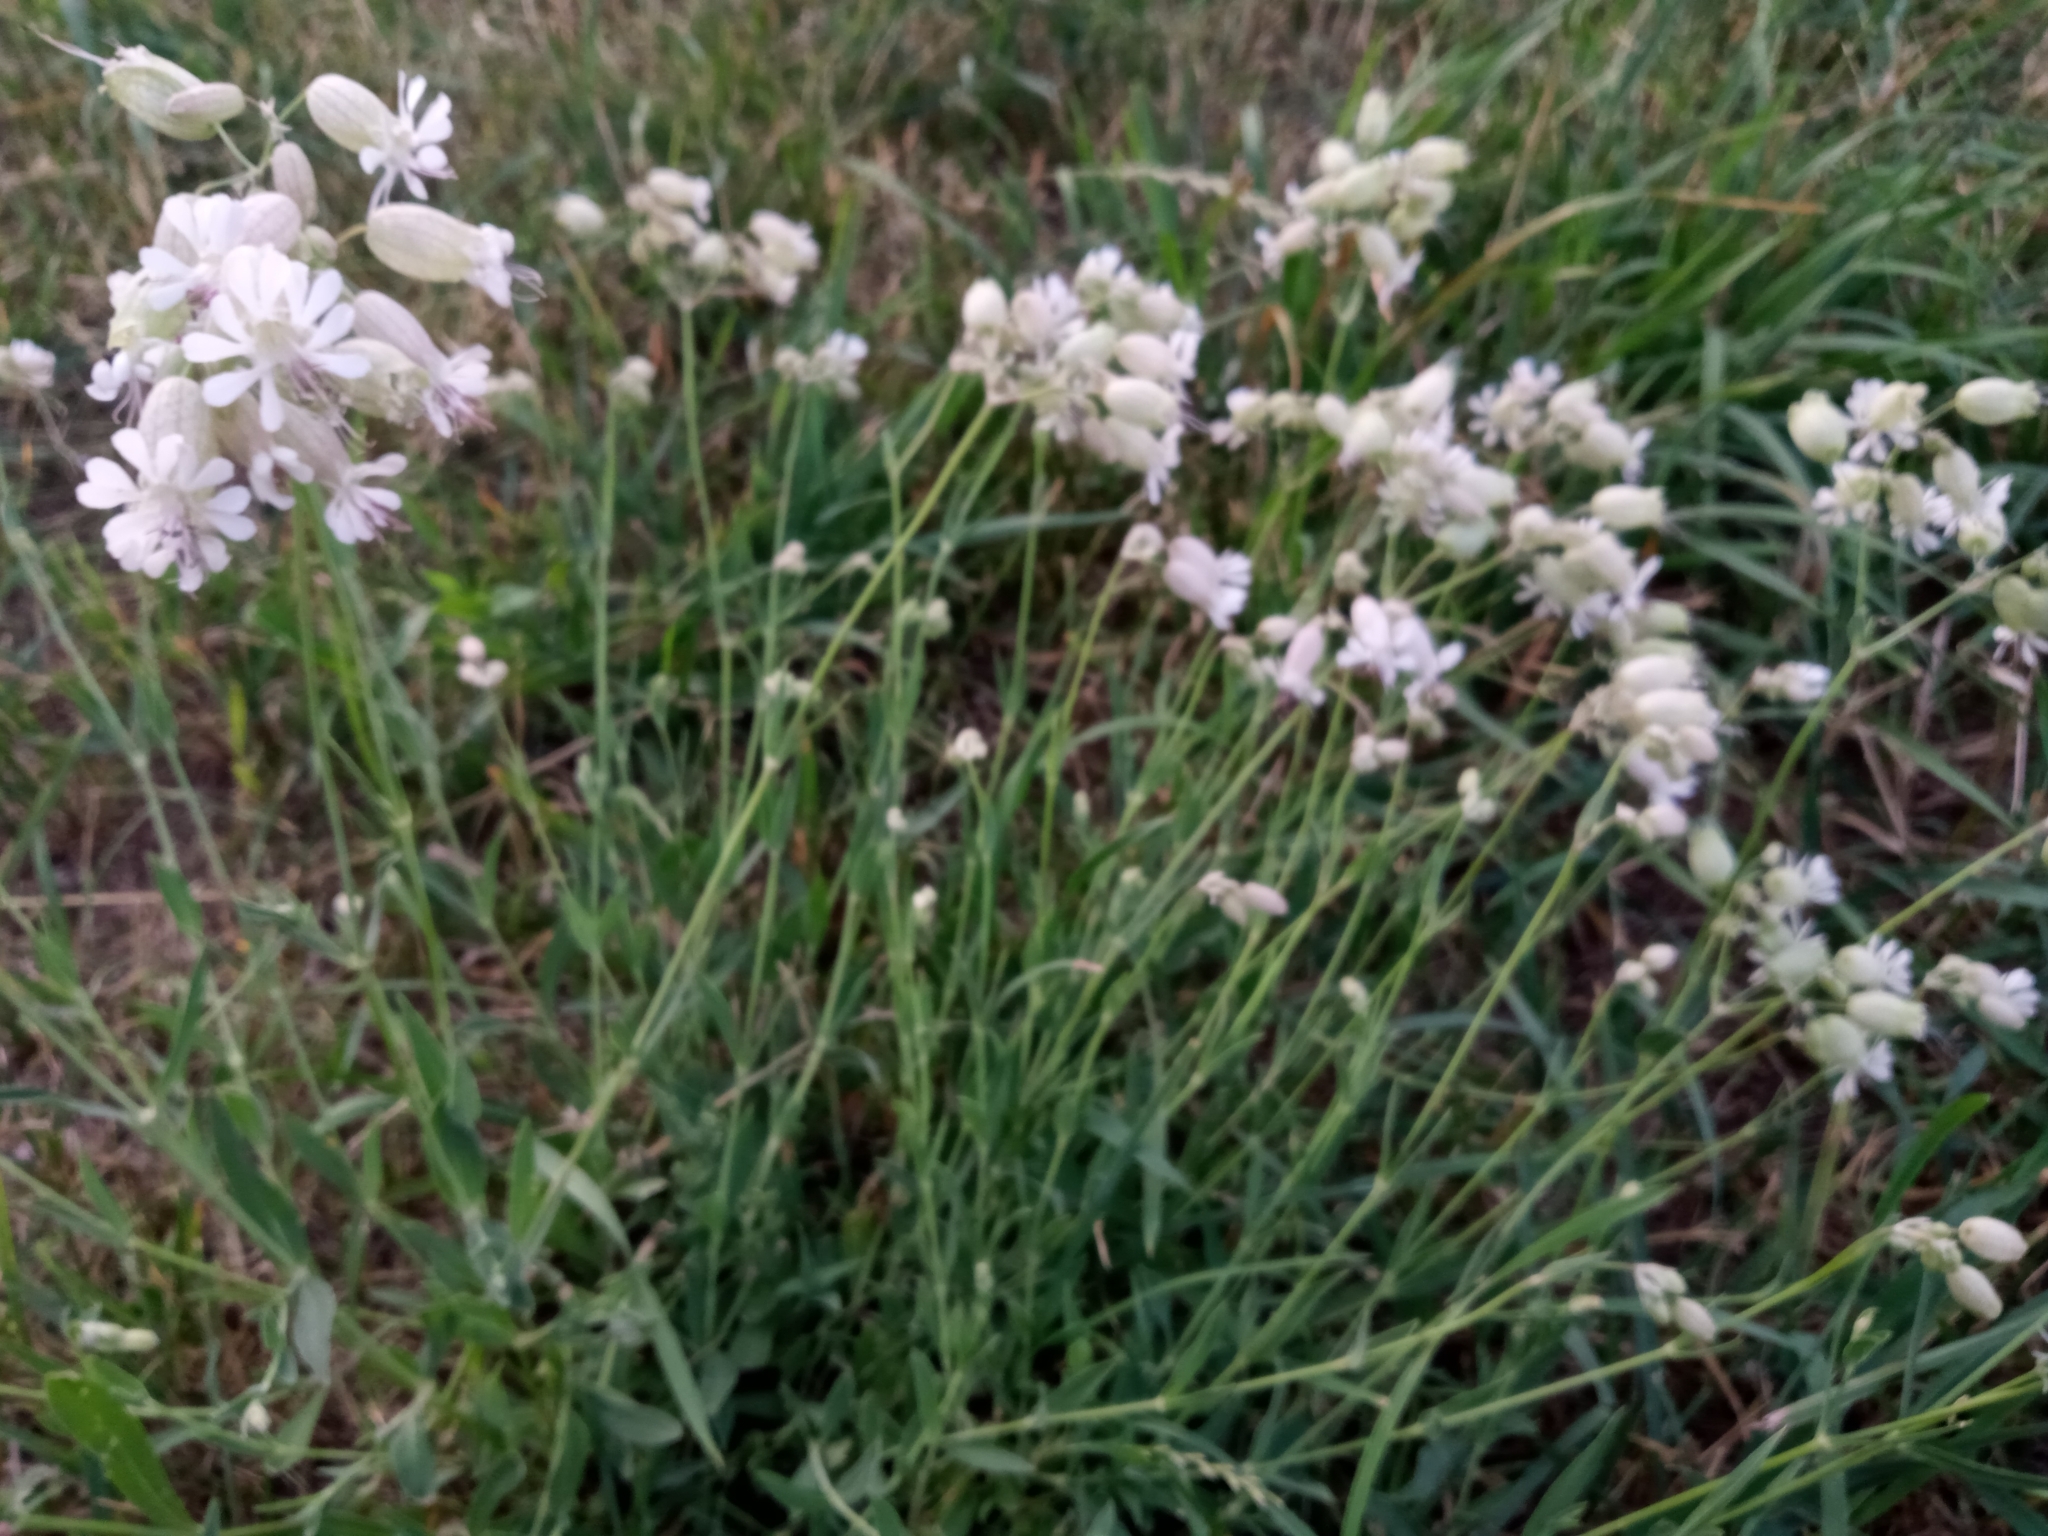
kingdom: Plantae
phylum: Tracheophyta
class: Magnoliopsida
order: Caryophyllales
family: Caryophyllaceae
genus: Silene
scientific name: Silene vulgaris
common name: Bladder campion
